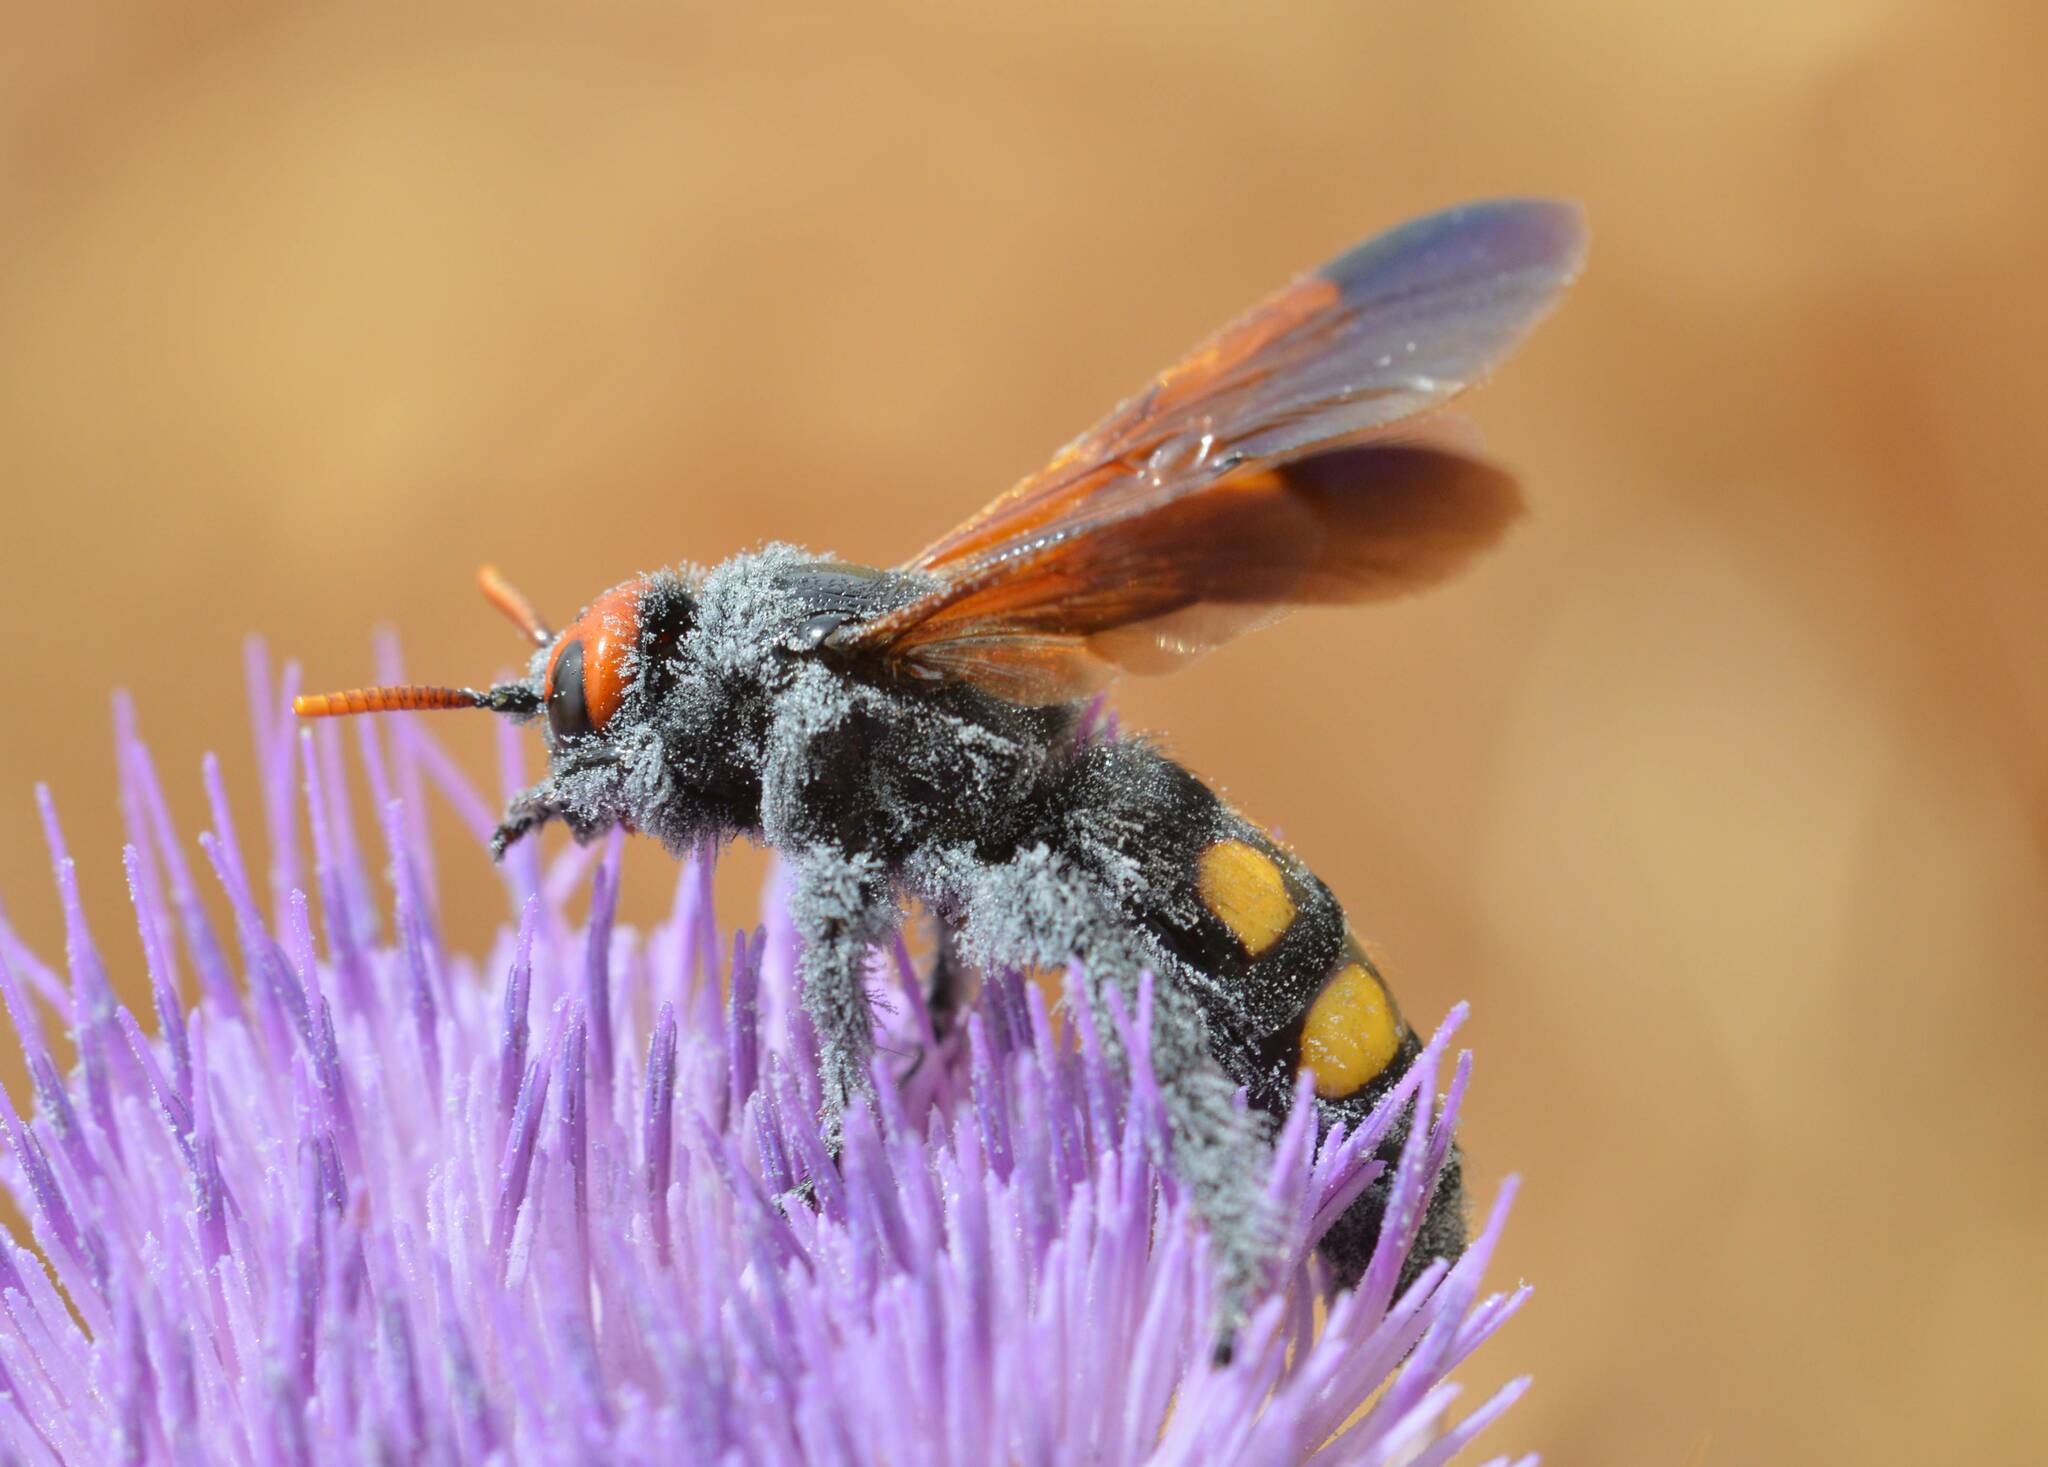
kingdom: Animalia
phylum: Arthropoda
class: Insecta
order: Hymenoptera
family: Scoliidae
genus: Megascolia
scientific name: Megascolia bidens
